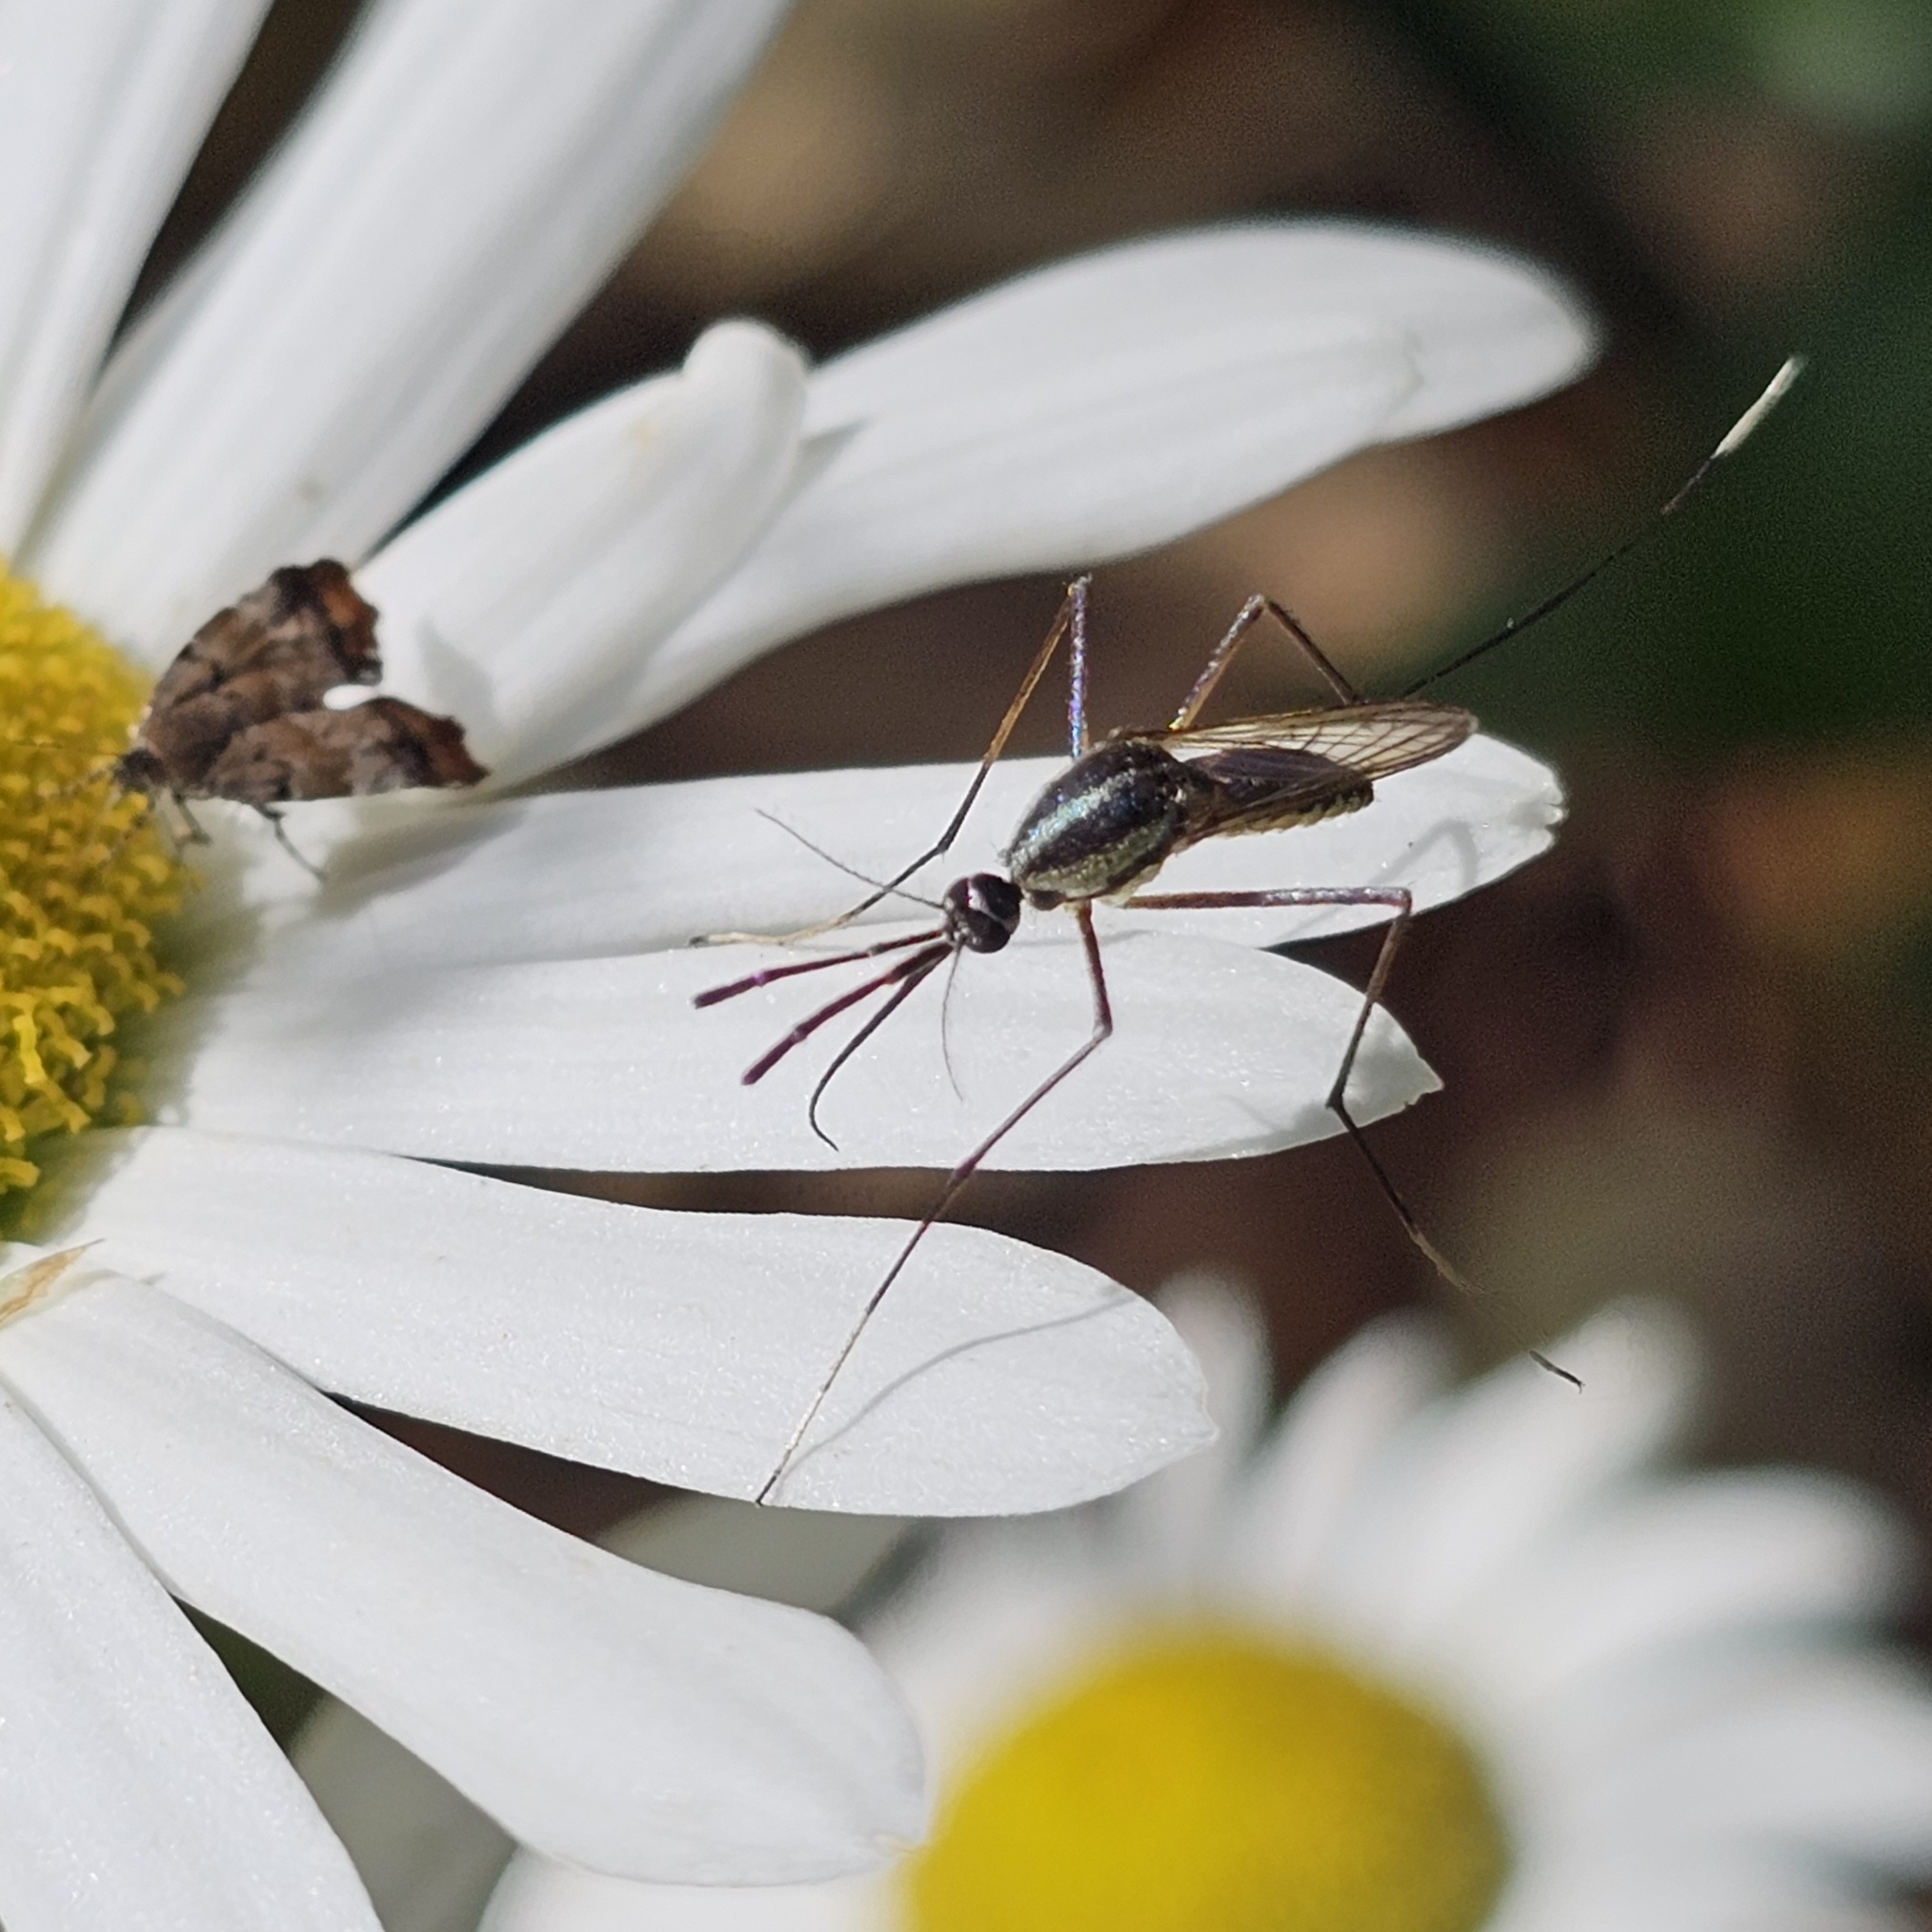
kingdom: Animalia
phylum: Arthropoda
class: Insecta
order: Diptera
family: Culicidae
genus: Toxorhynchites
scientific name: Toxorhynchites rutilus
